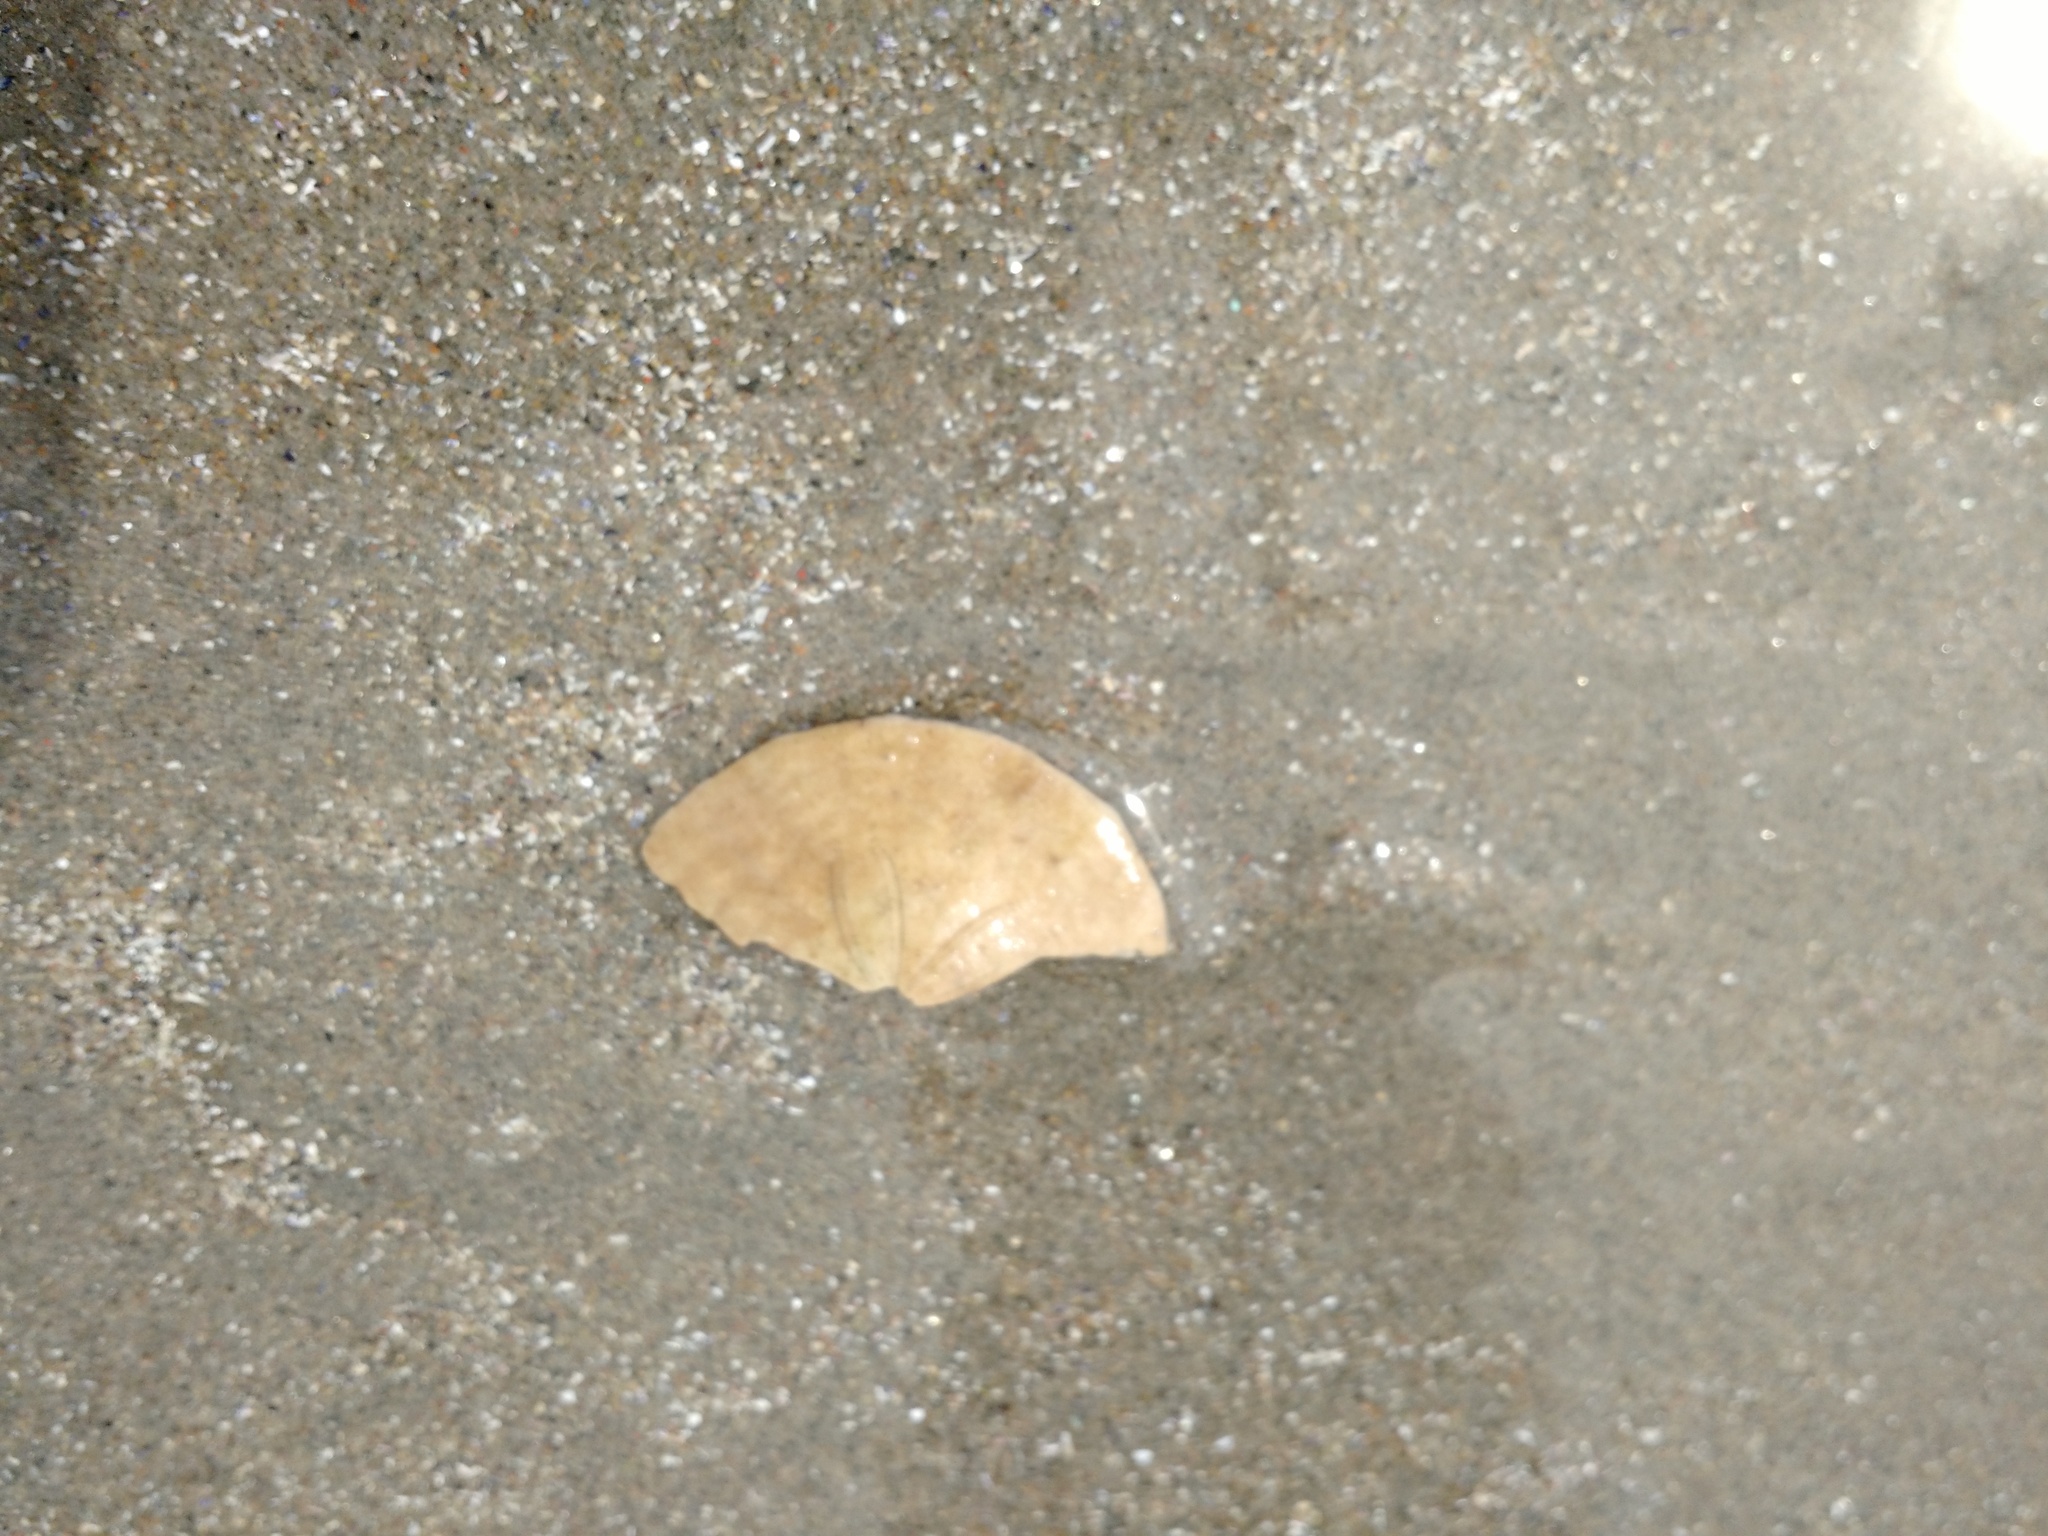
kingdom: Animalia
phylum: Echinodermata
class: Echinoidea
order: Echinolampadacea
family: Echinarachniidae
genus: Echinarachnius
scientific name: Echinarachnius parma
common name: Common sand dollar
